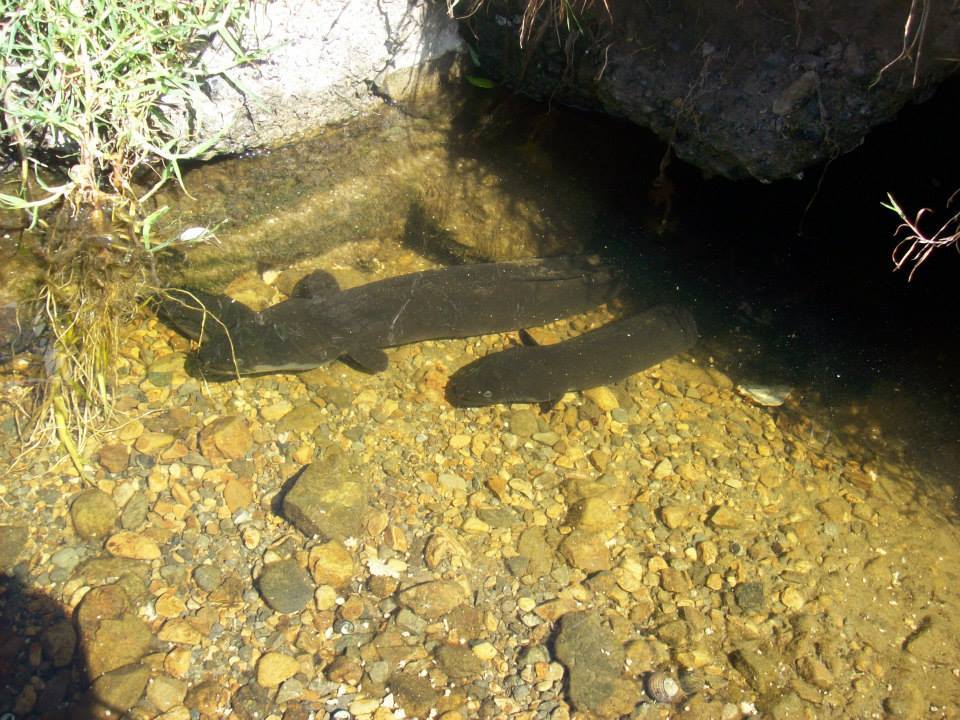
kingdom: Animalia
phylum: Chordata
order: Anguilliformes
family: Anguillidae
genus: Anguilla
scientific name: Anguilla dieffenbachii
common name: New zealand longfin eel
